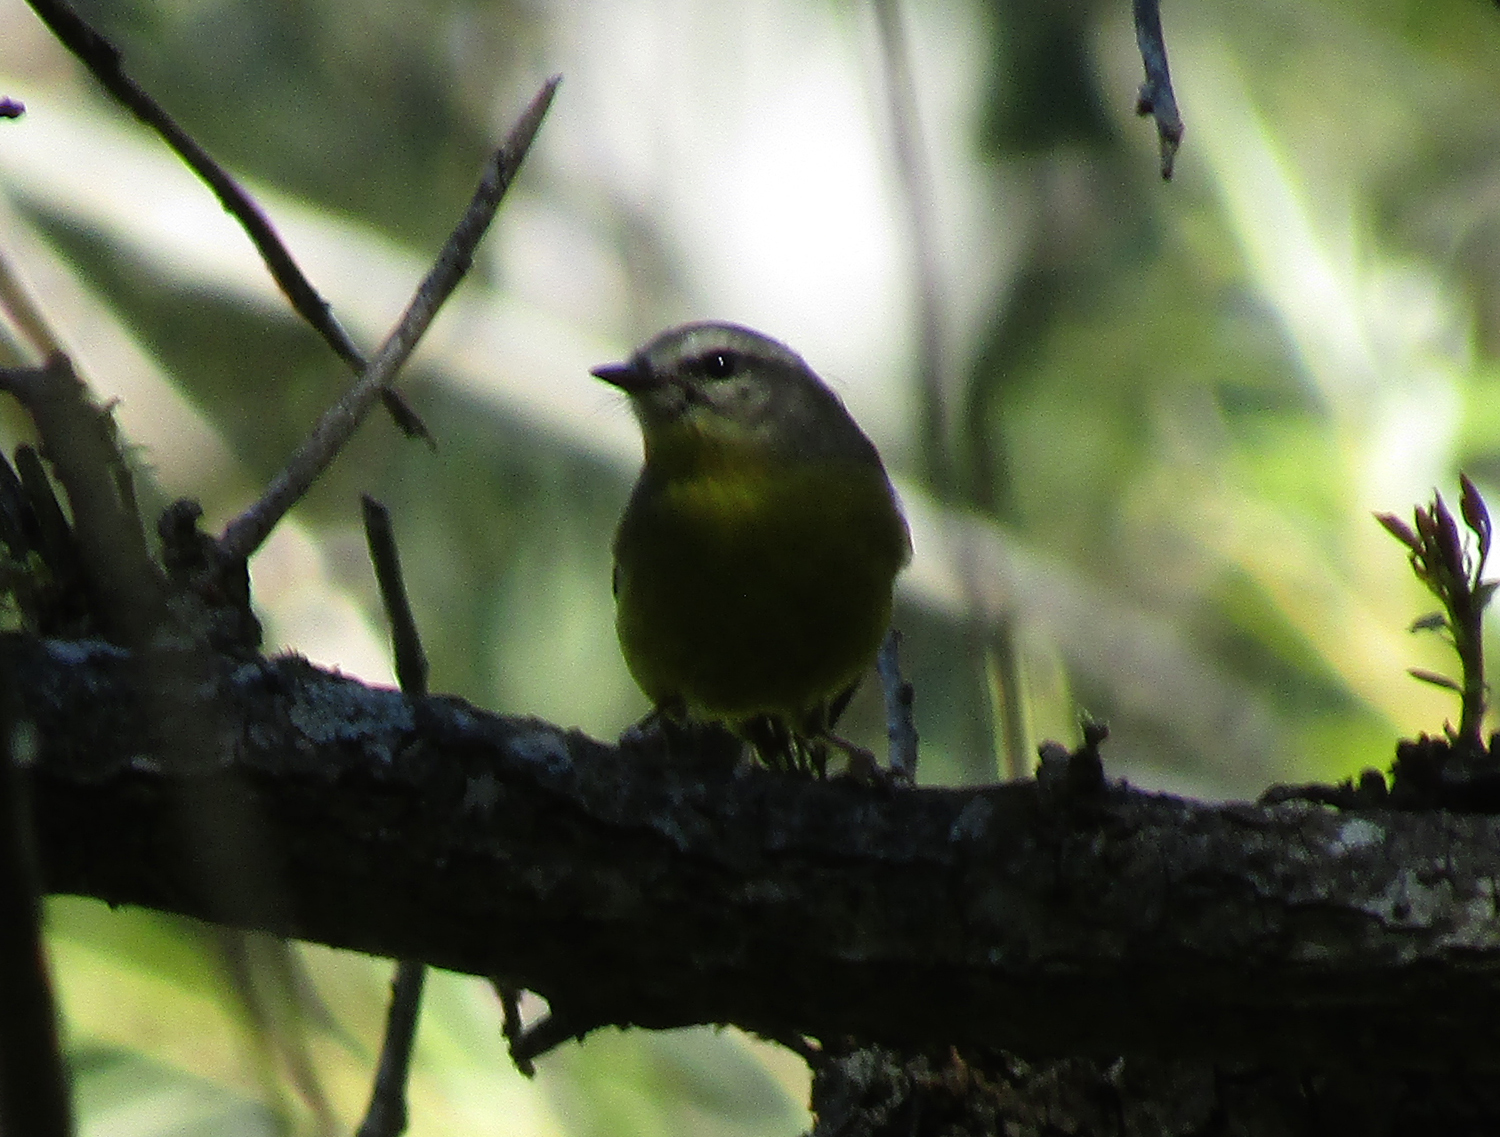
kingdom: Animalia
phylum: Chordata
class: Aves
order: Passeriformes
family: Parulidae
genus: Basileuterus
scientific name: Basileuterus culicivorus
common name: Golden-crowned warbler
